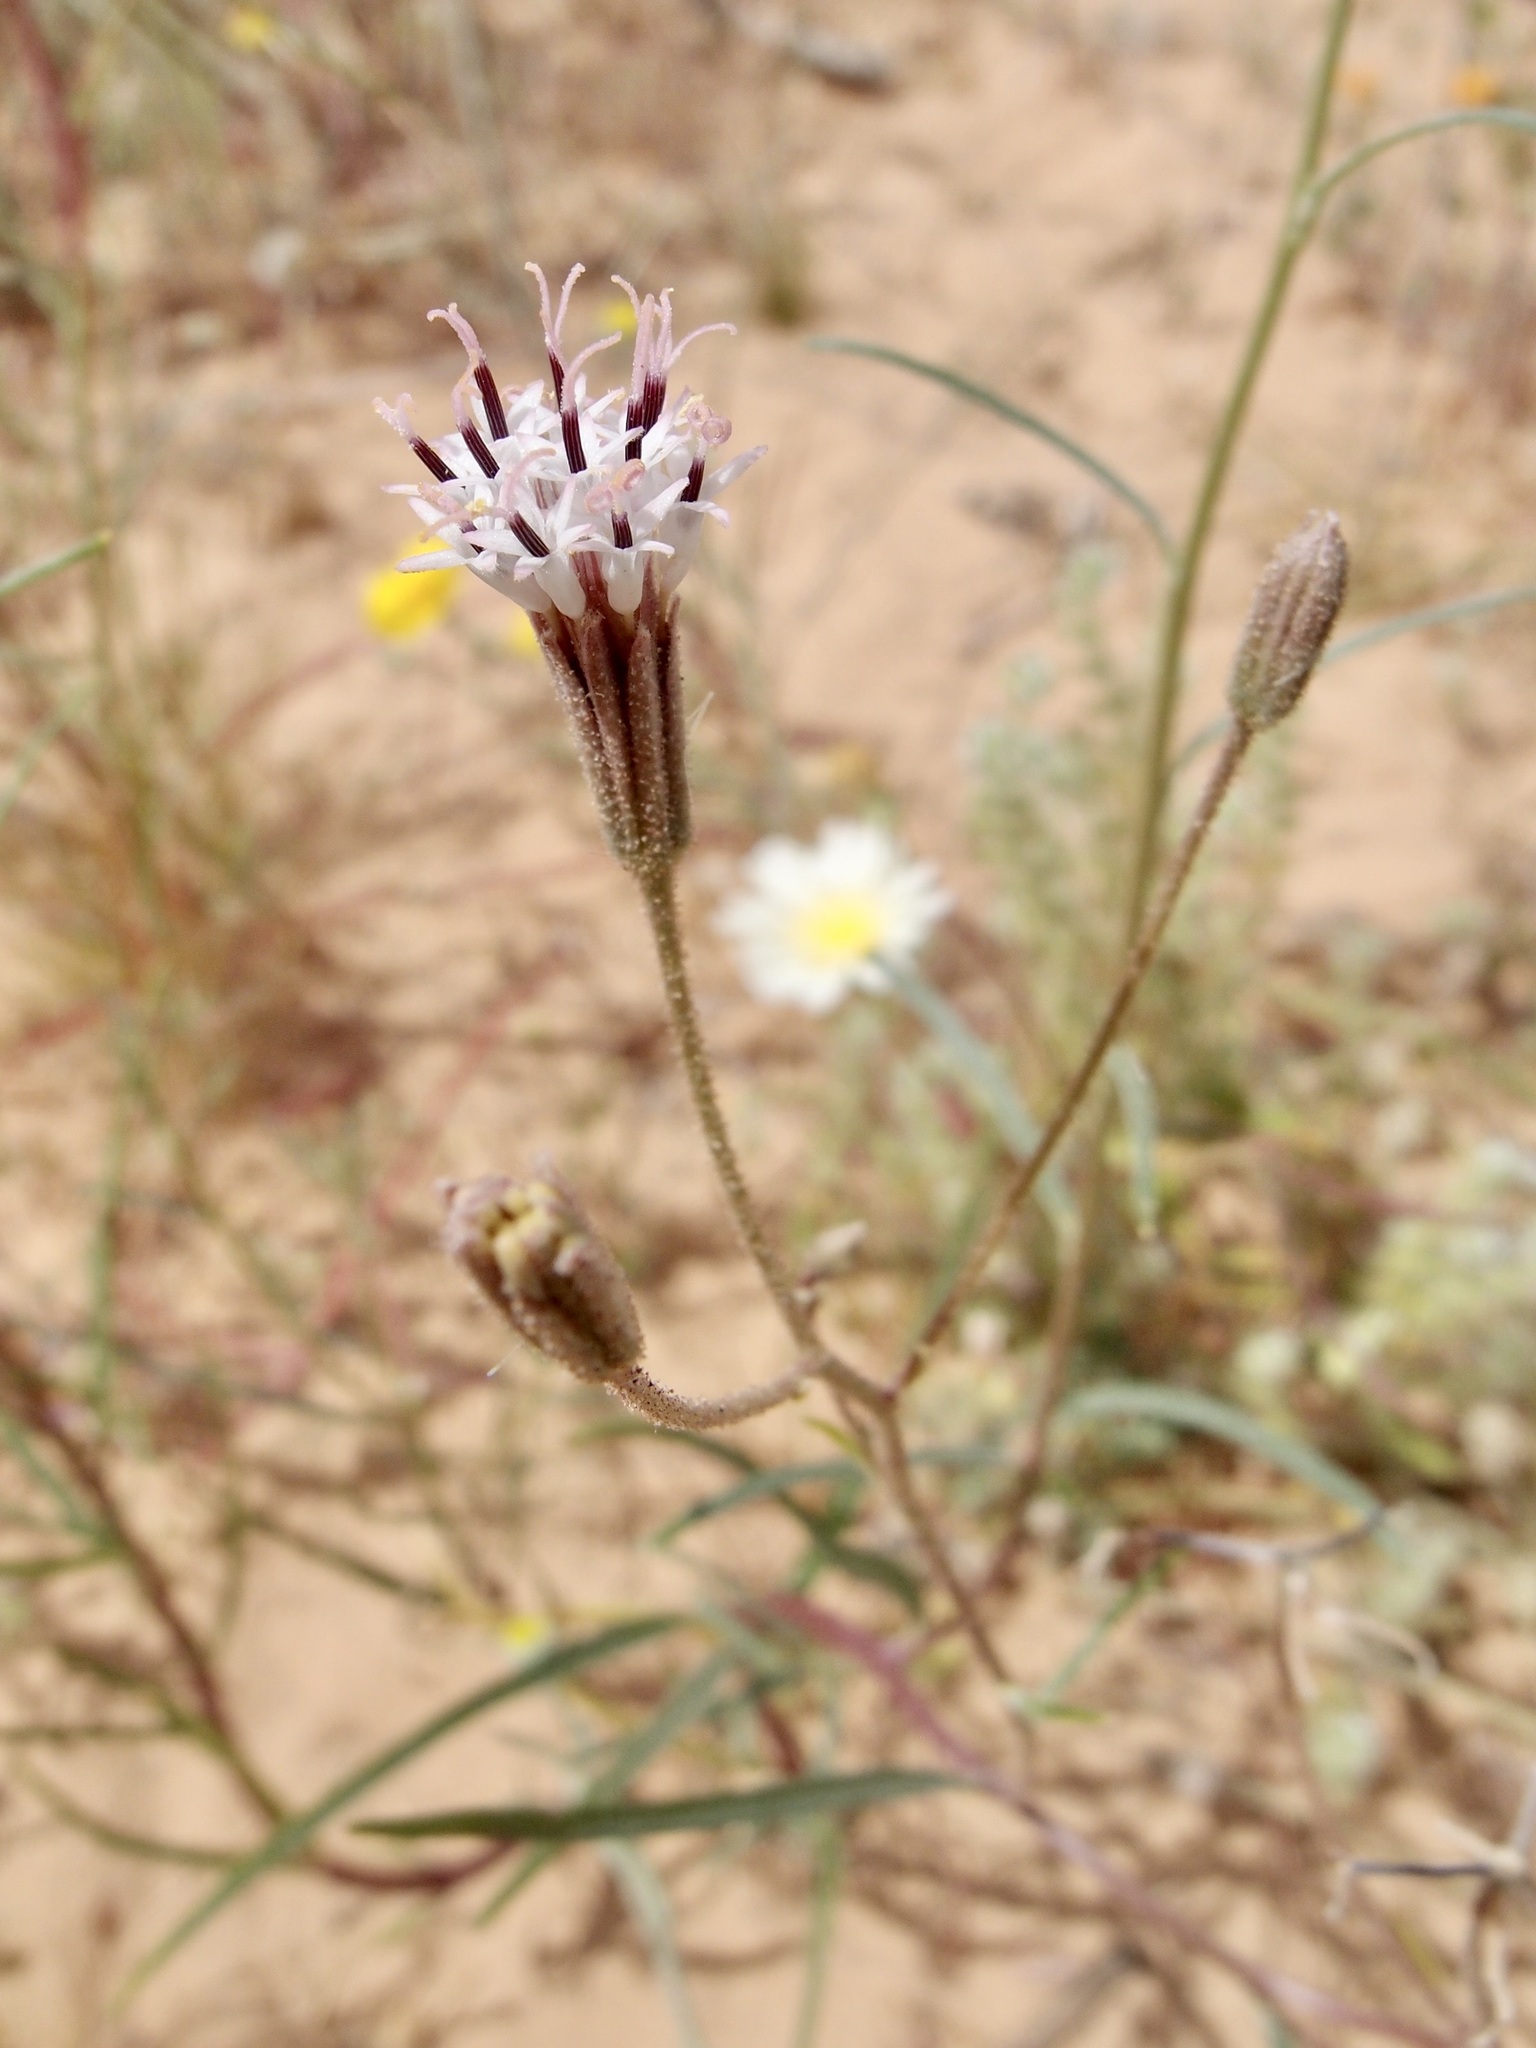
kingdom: Plantae
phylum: Tracheophyta
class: Magnoliopsida
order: Asterales
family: Asteraceae
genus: Palafoxia
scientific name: Palafoxia arida
